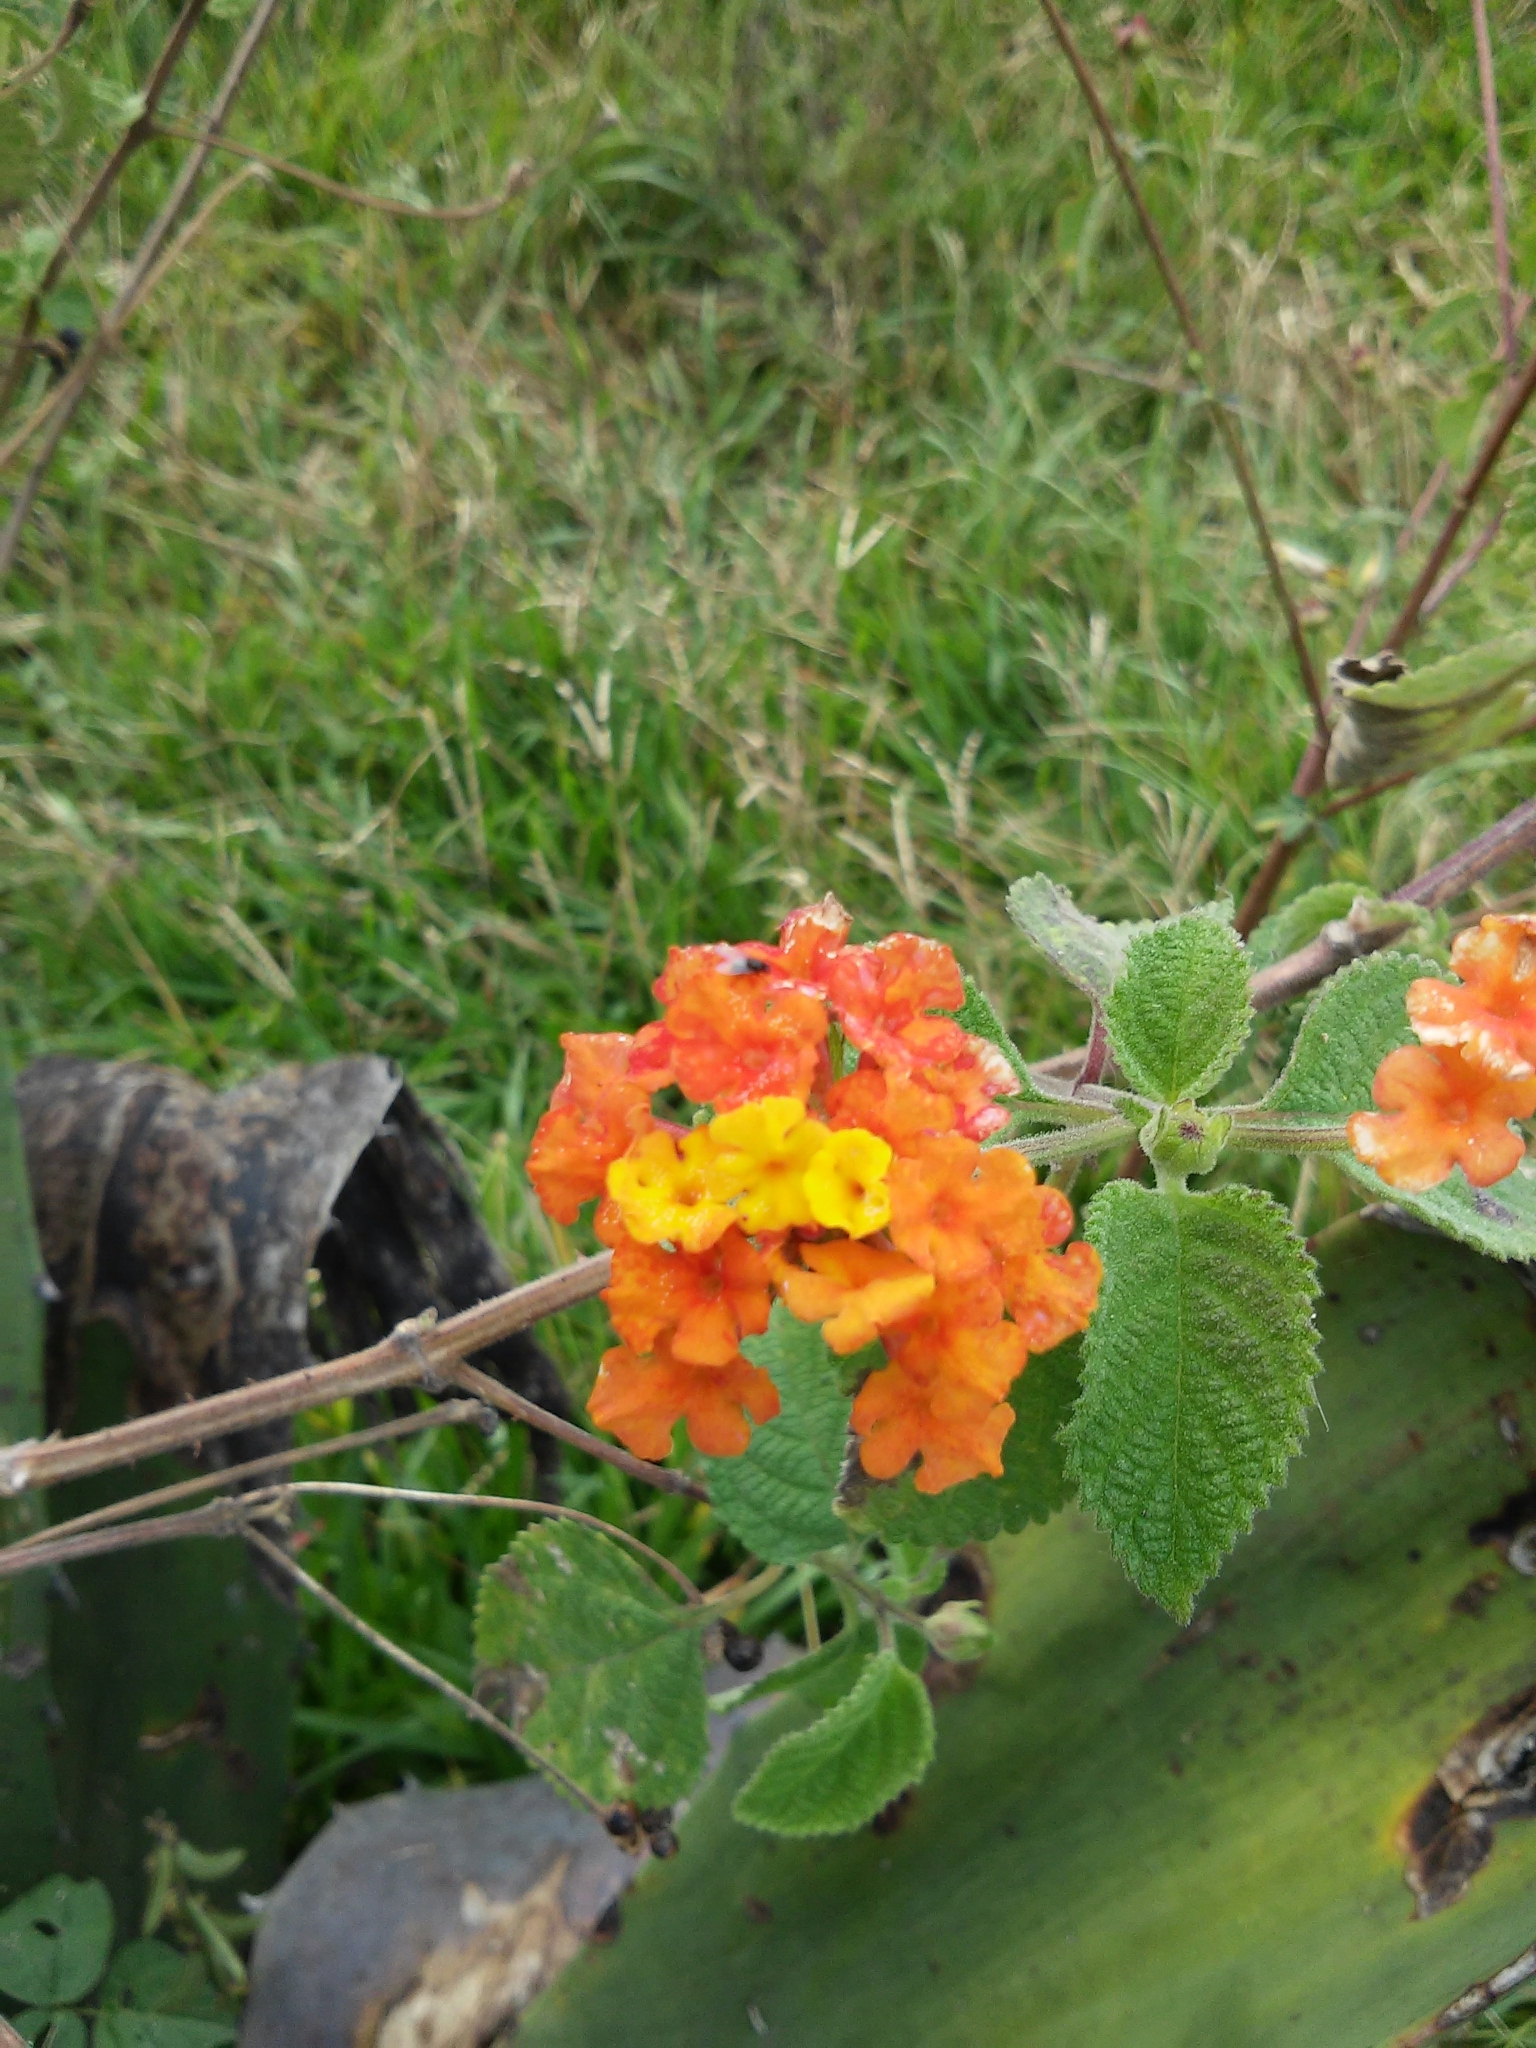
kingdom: Plantae
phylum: Tracheophyta
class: Magnoliopsida
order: Lamiales
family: Verbenaceae
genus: Lantana
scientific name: Lantana camara
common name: Lantana
